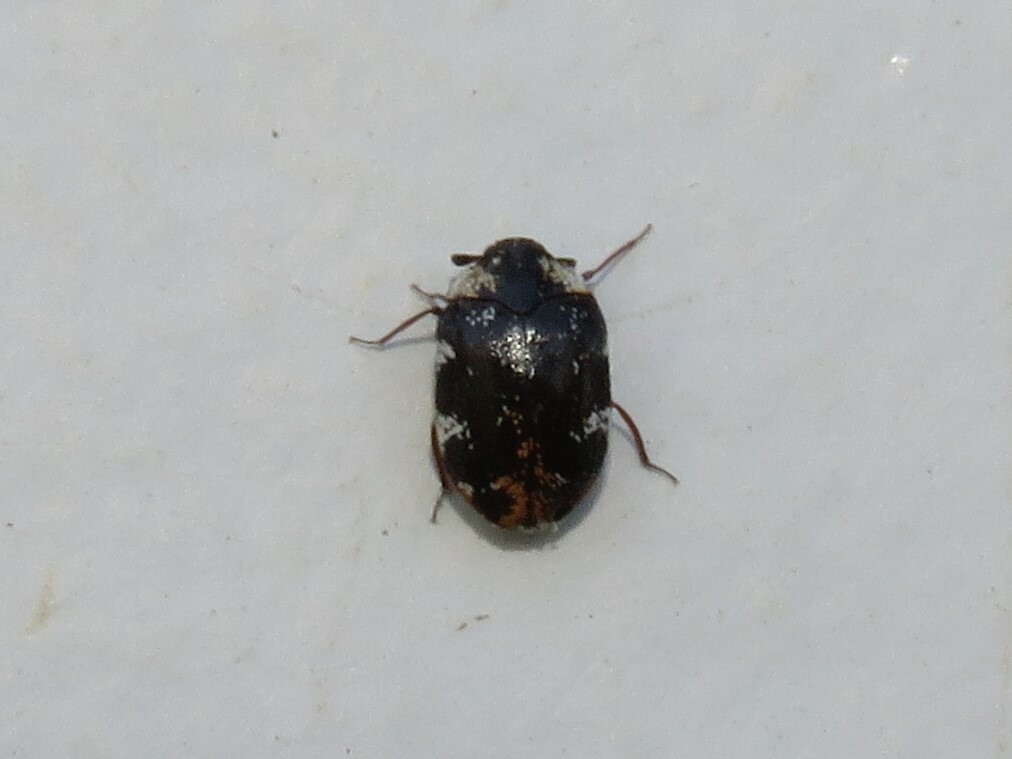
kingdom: Animalia
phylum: Arthropoda
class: Insecta
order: Coleoptera
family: Dermestidae
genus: Anthrenus
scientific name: Anthrenus scrophulariae
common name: Buffalo carpet beetle
